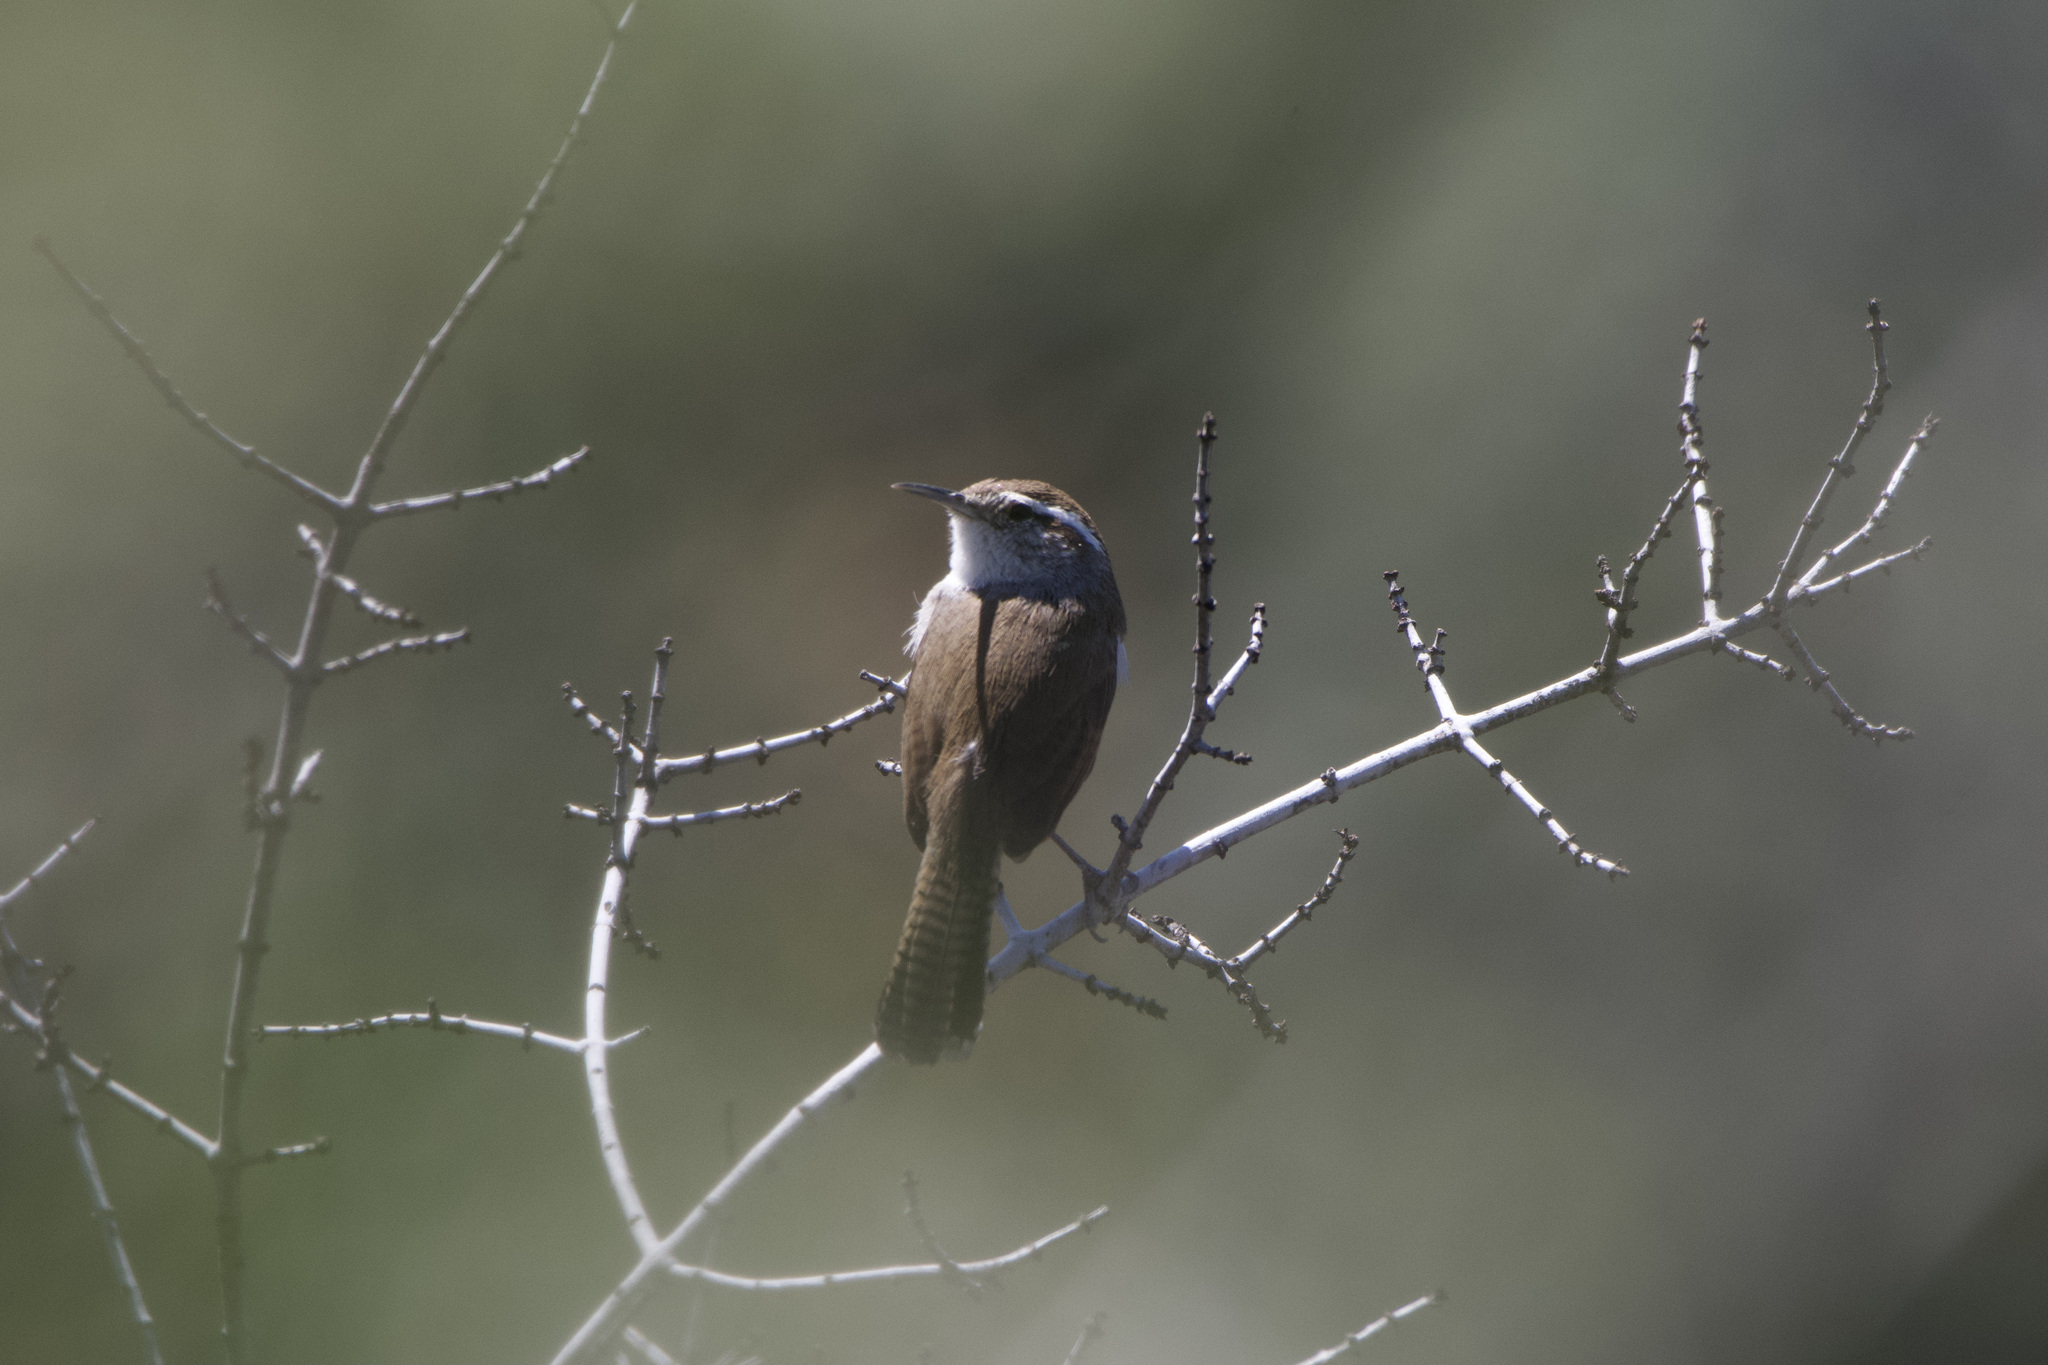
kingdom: Animalia
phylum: Chordata
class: Aves
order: Passeriformes
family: Troglodytidae
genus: Thryomanes
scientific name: Thryomanes bewickii
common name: Bewick's wren
